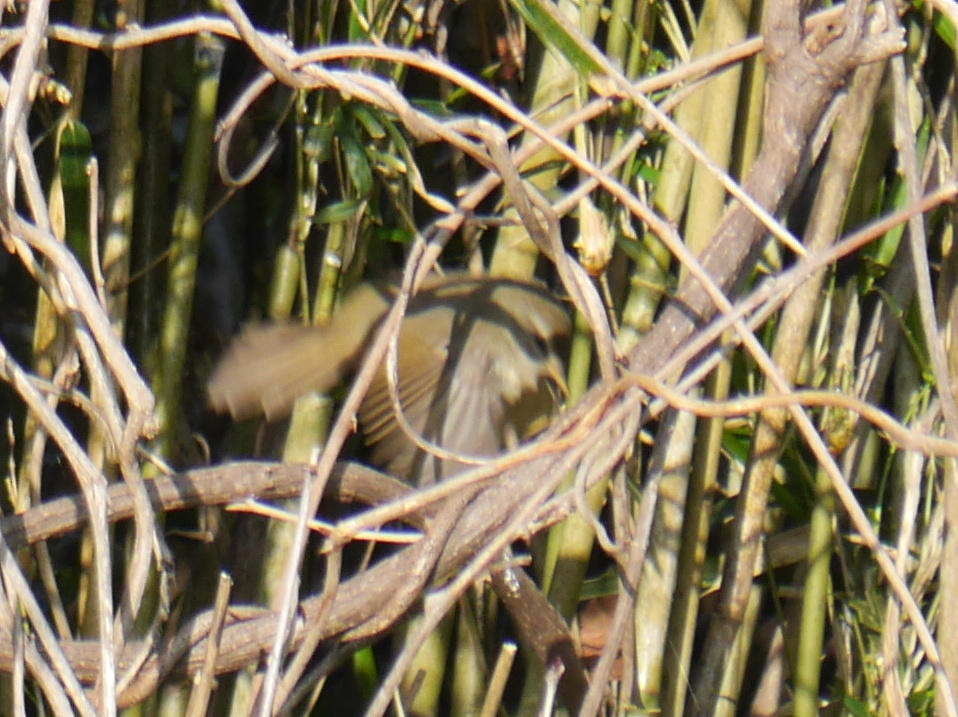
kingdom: Animalia
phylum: Chordata
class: Aves
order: Passeriformes
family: Cettiidae
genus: Horornis
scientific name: Horornis diphone
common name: Japanese bush warbler
